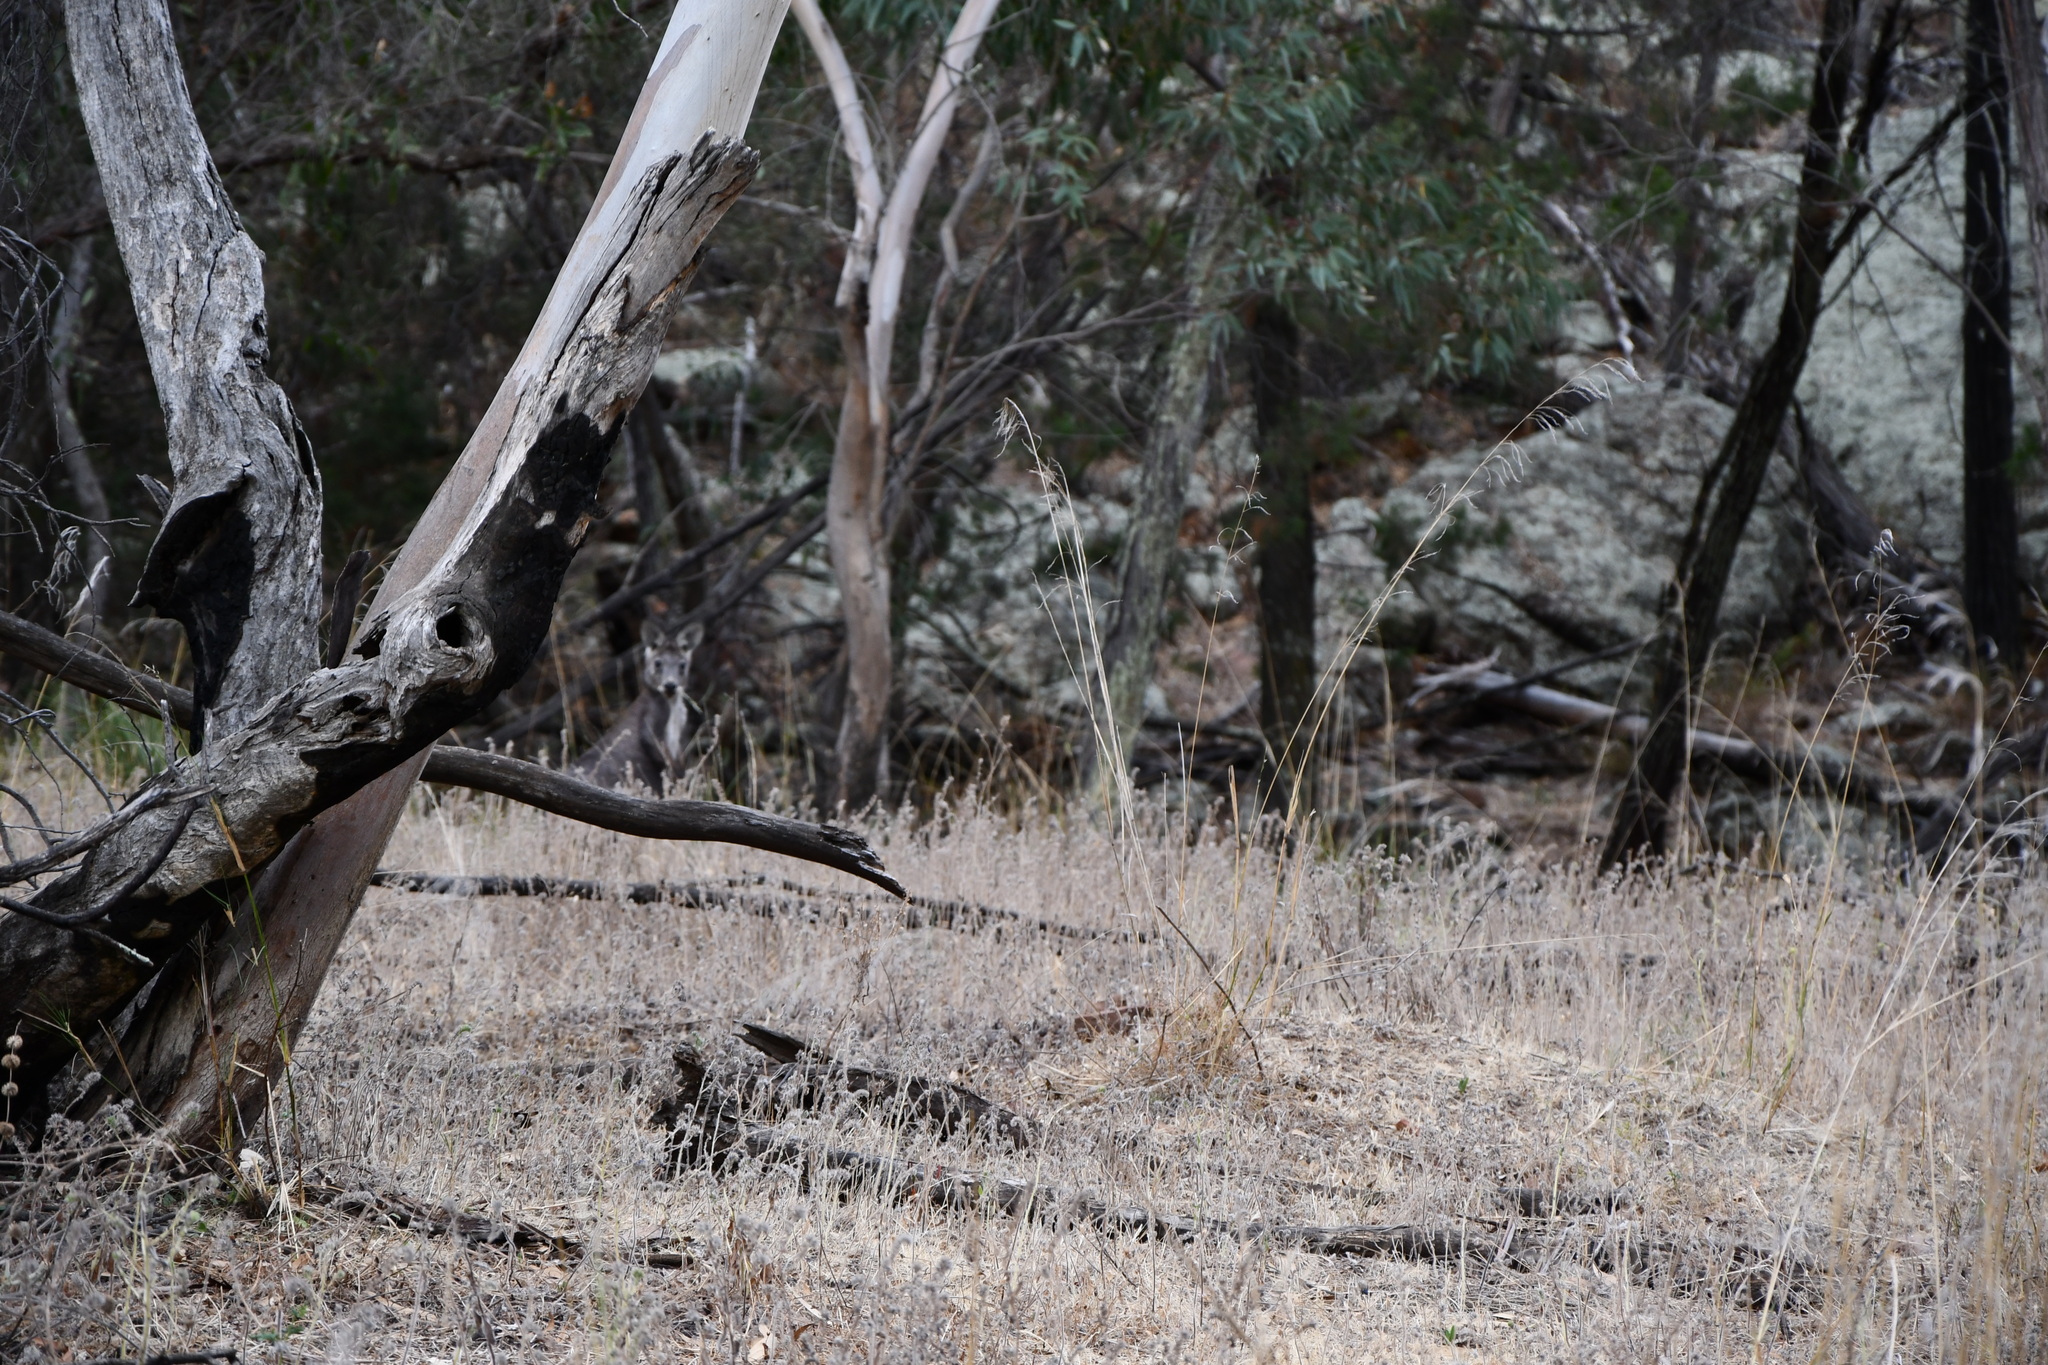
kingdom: Animalia
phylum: Chordata
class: Mammalia
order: Diprotodontia
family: Macropodidae
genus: Macropus
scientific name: Macropus robustus
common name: Eastern wallaroo
